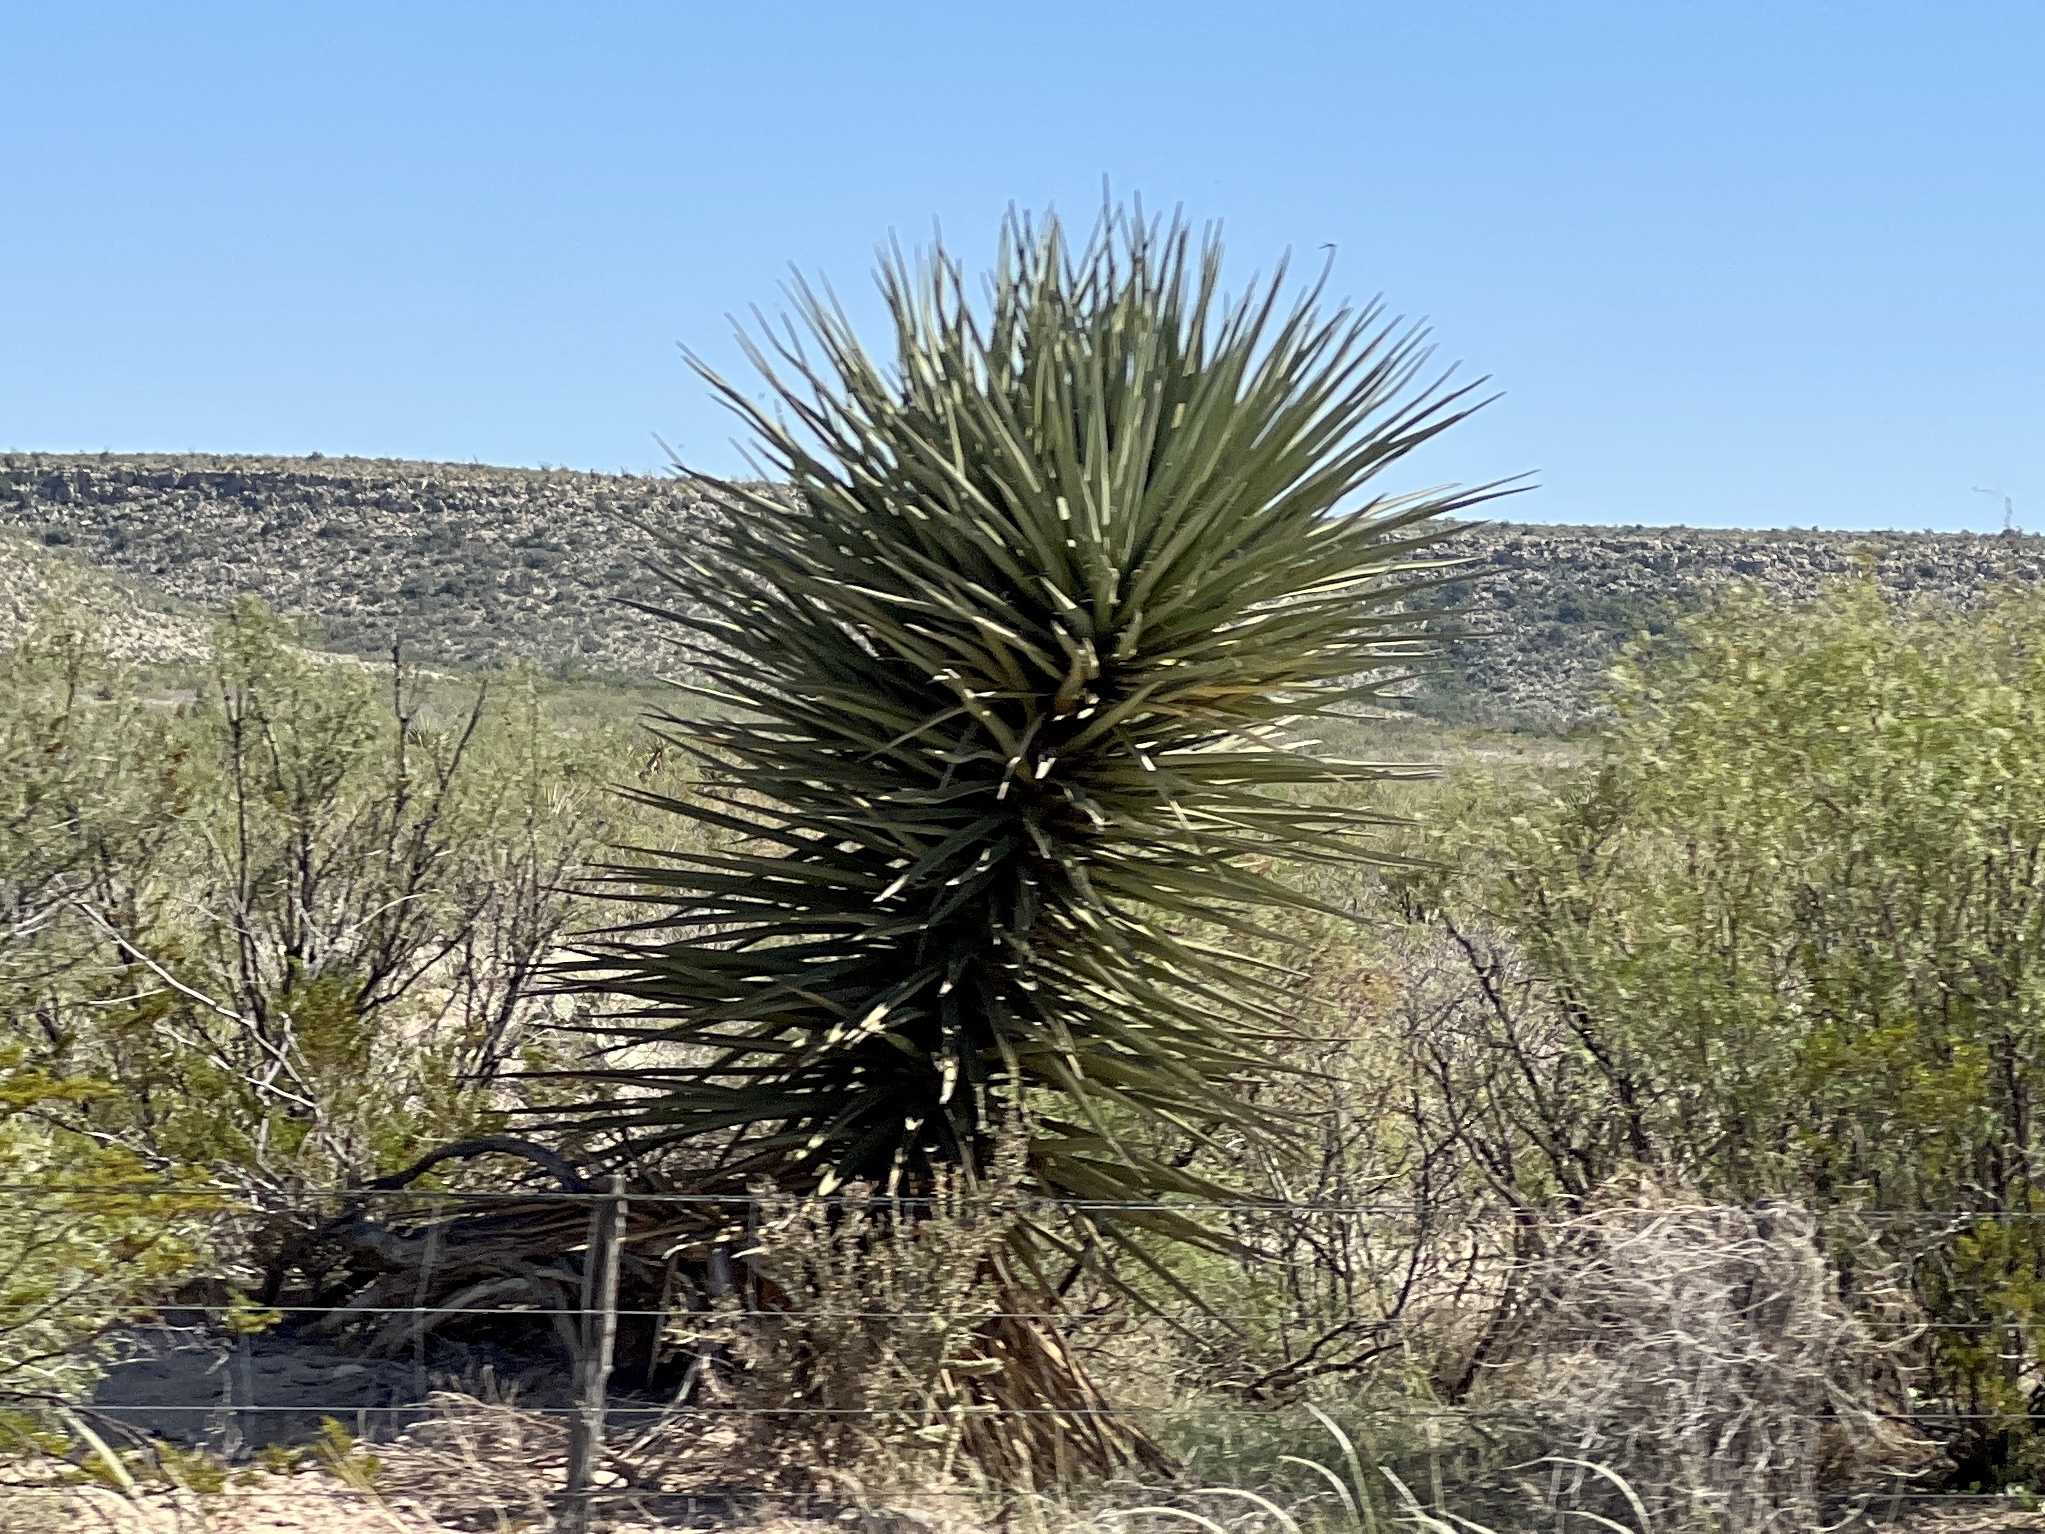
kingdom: Plantae
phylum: Tracheophyta
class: Liliopsida
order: Asparagales
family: Asparagaceae
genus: Yucca
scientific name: Yucca treculiana
